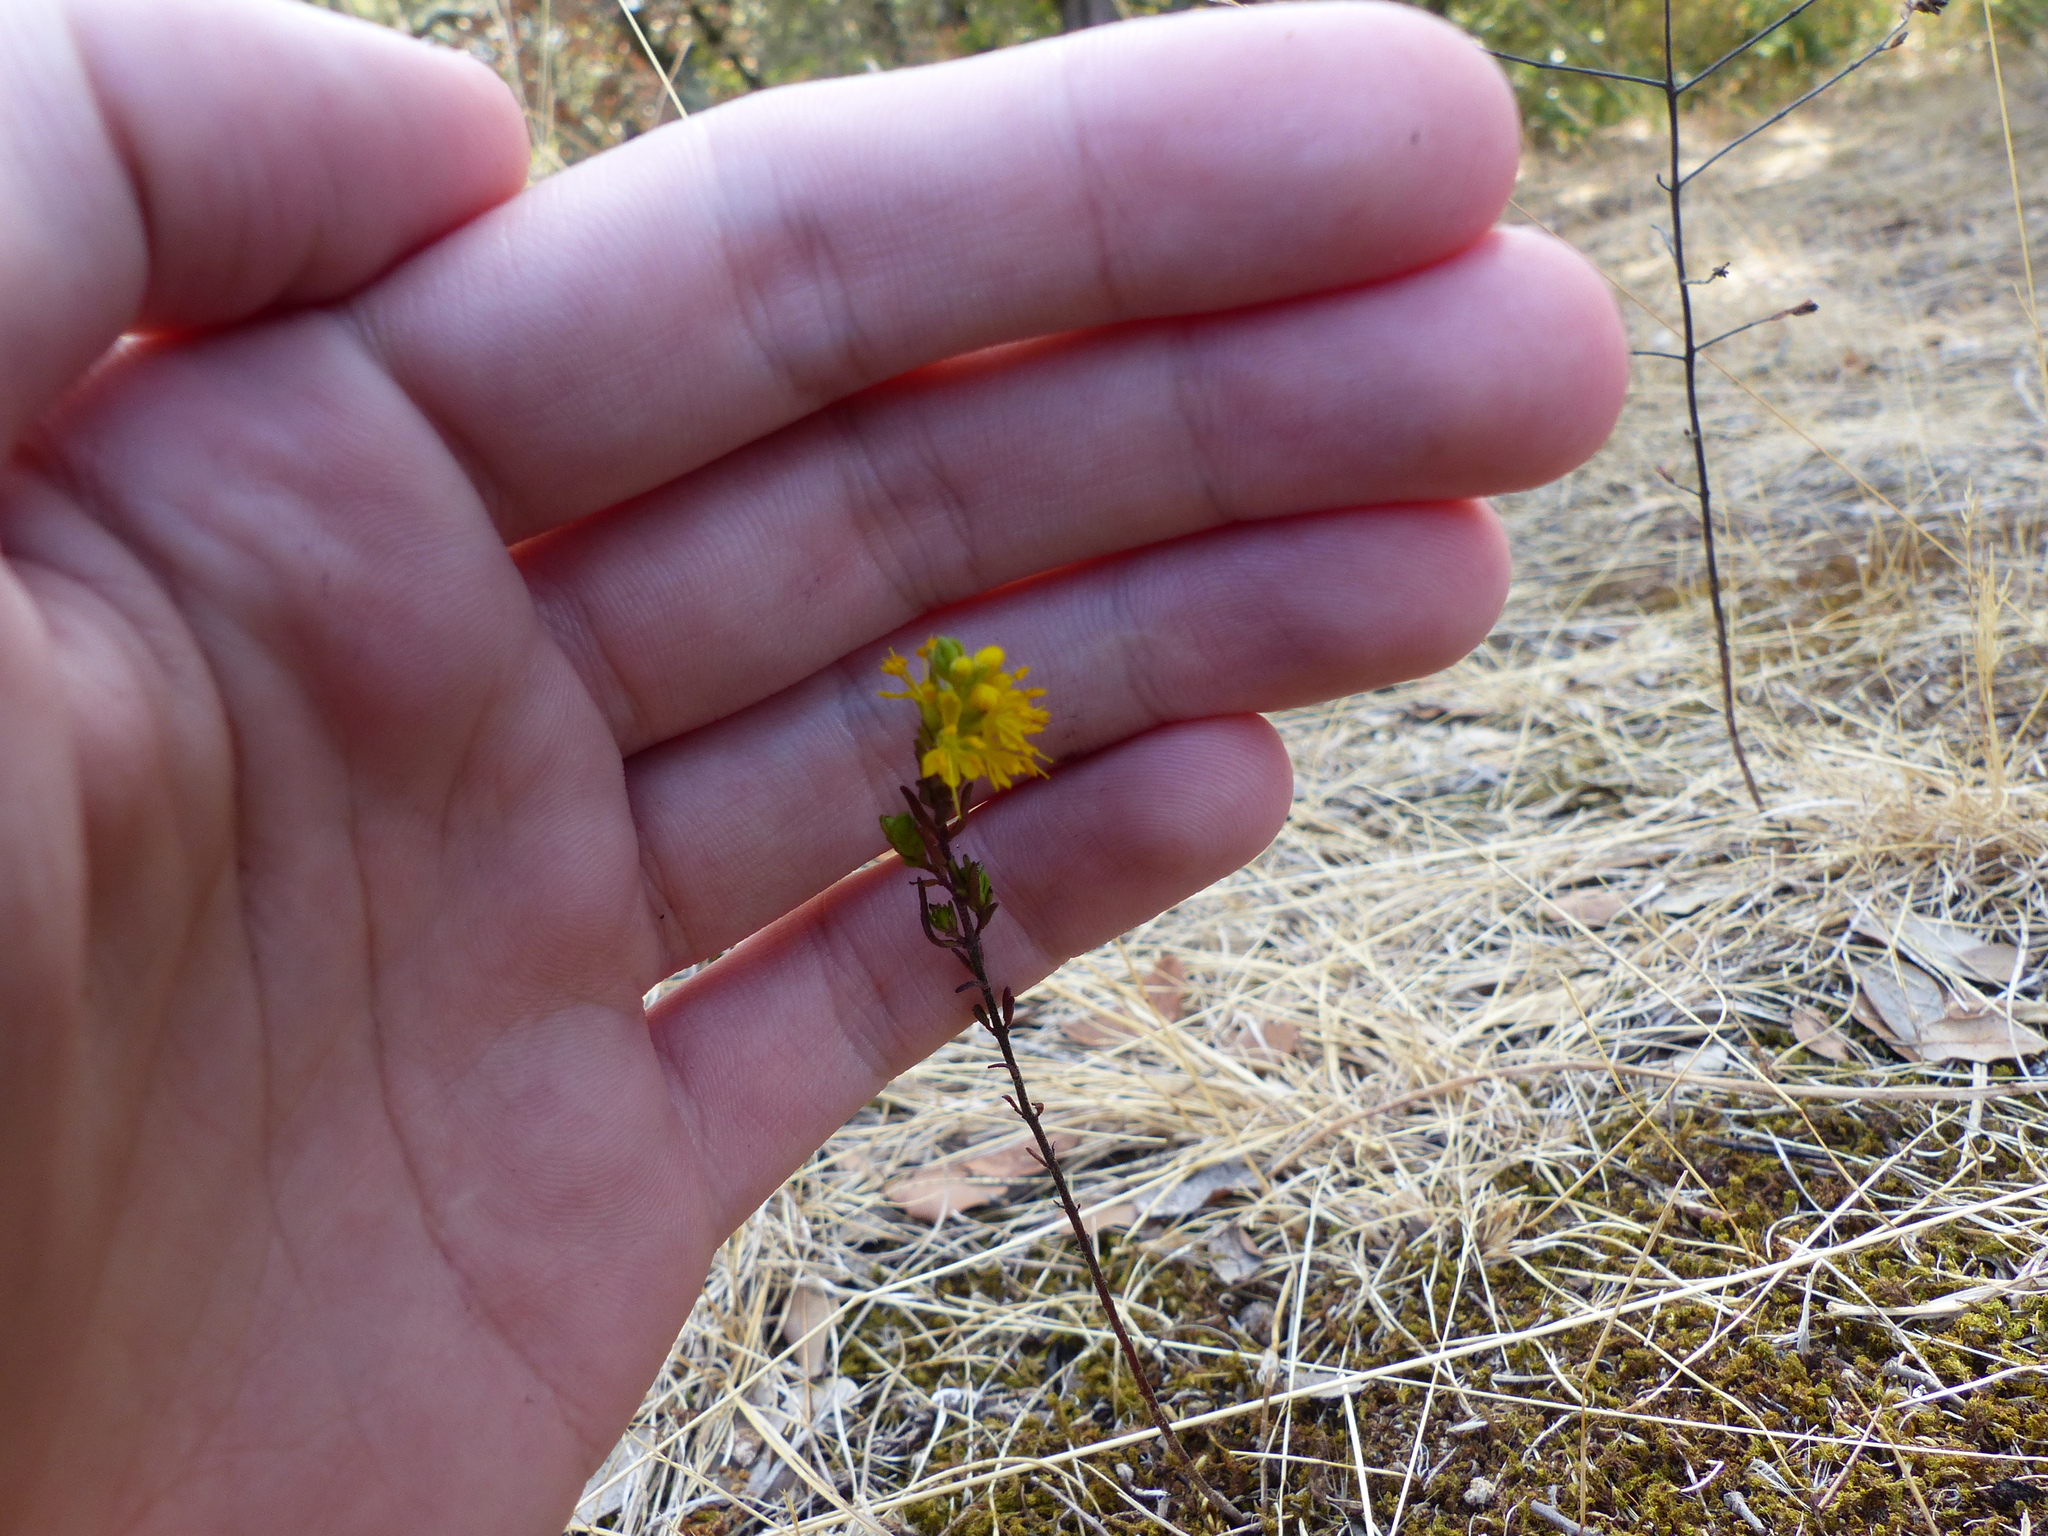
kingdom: Plantae
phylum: Tracheophyta
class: Magnoliopsida
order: Lamiales
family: Orobanchaceae
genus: Odontites
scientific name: Odontites luteus
